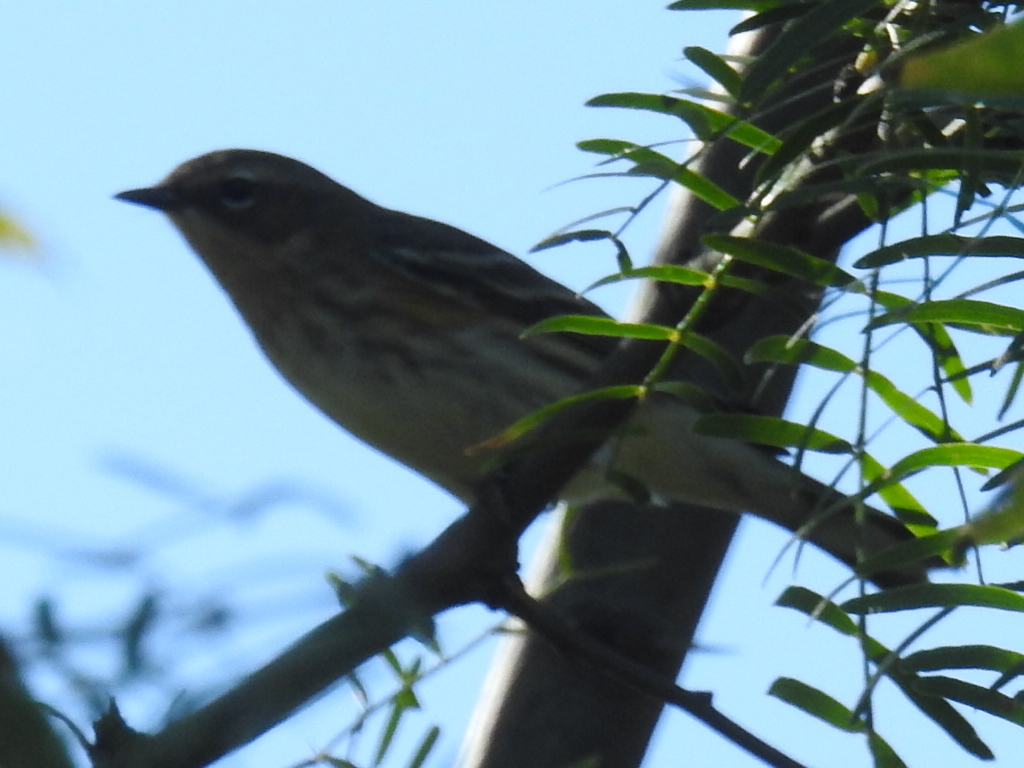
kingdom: Animalia
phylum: Chordata
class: Aves
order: Passeriformes
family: Parulidae
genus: Setophaga
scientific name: Setophaga coronata
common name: Myrtle warbler
